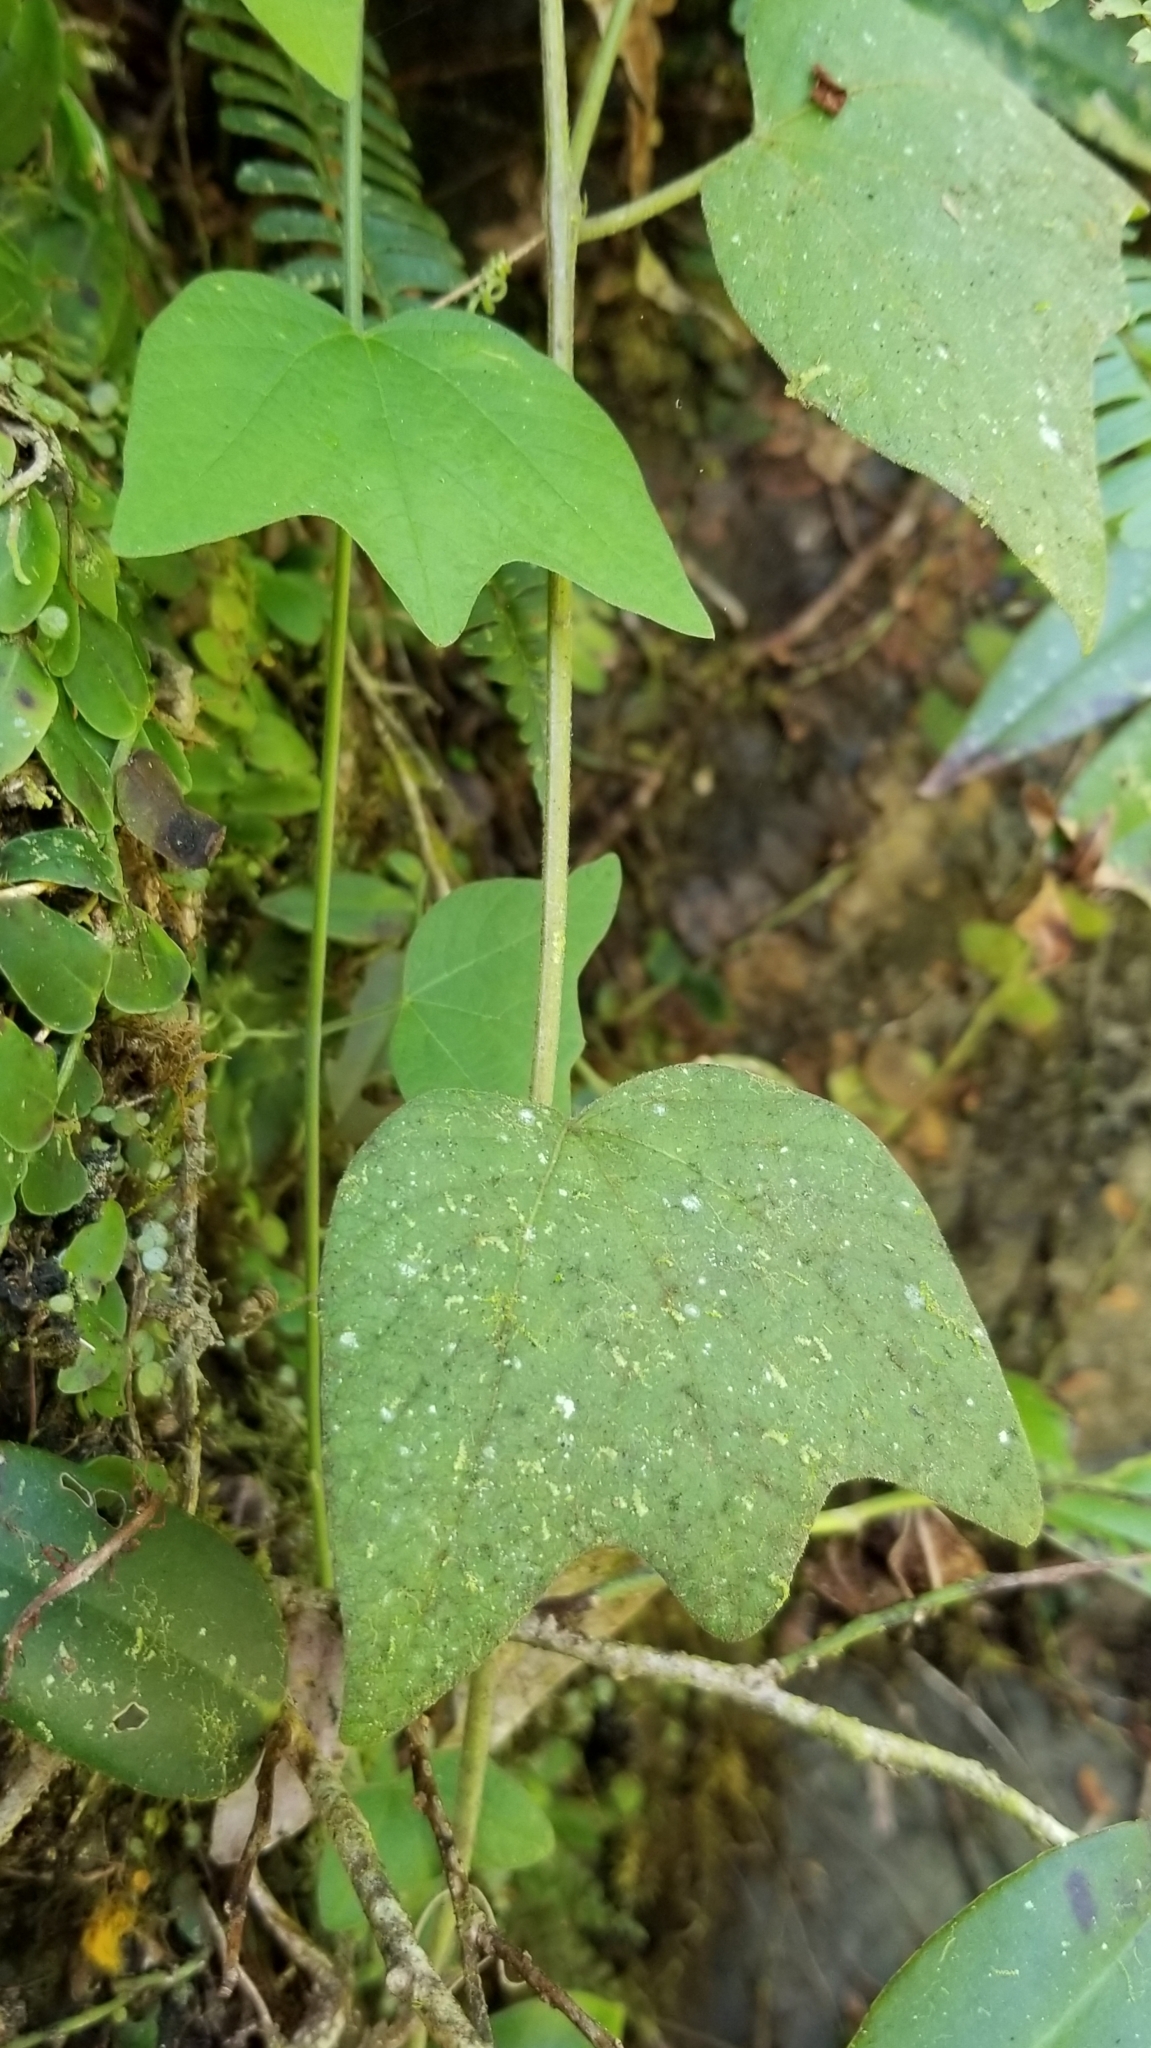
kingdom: Plantae
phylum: Tracheophyta
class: Magnoliopsida
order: Malpighiales
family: Passifloraceae
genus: Passiflora
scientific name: Passiflora sexflora
